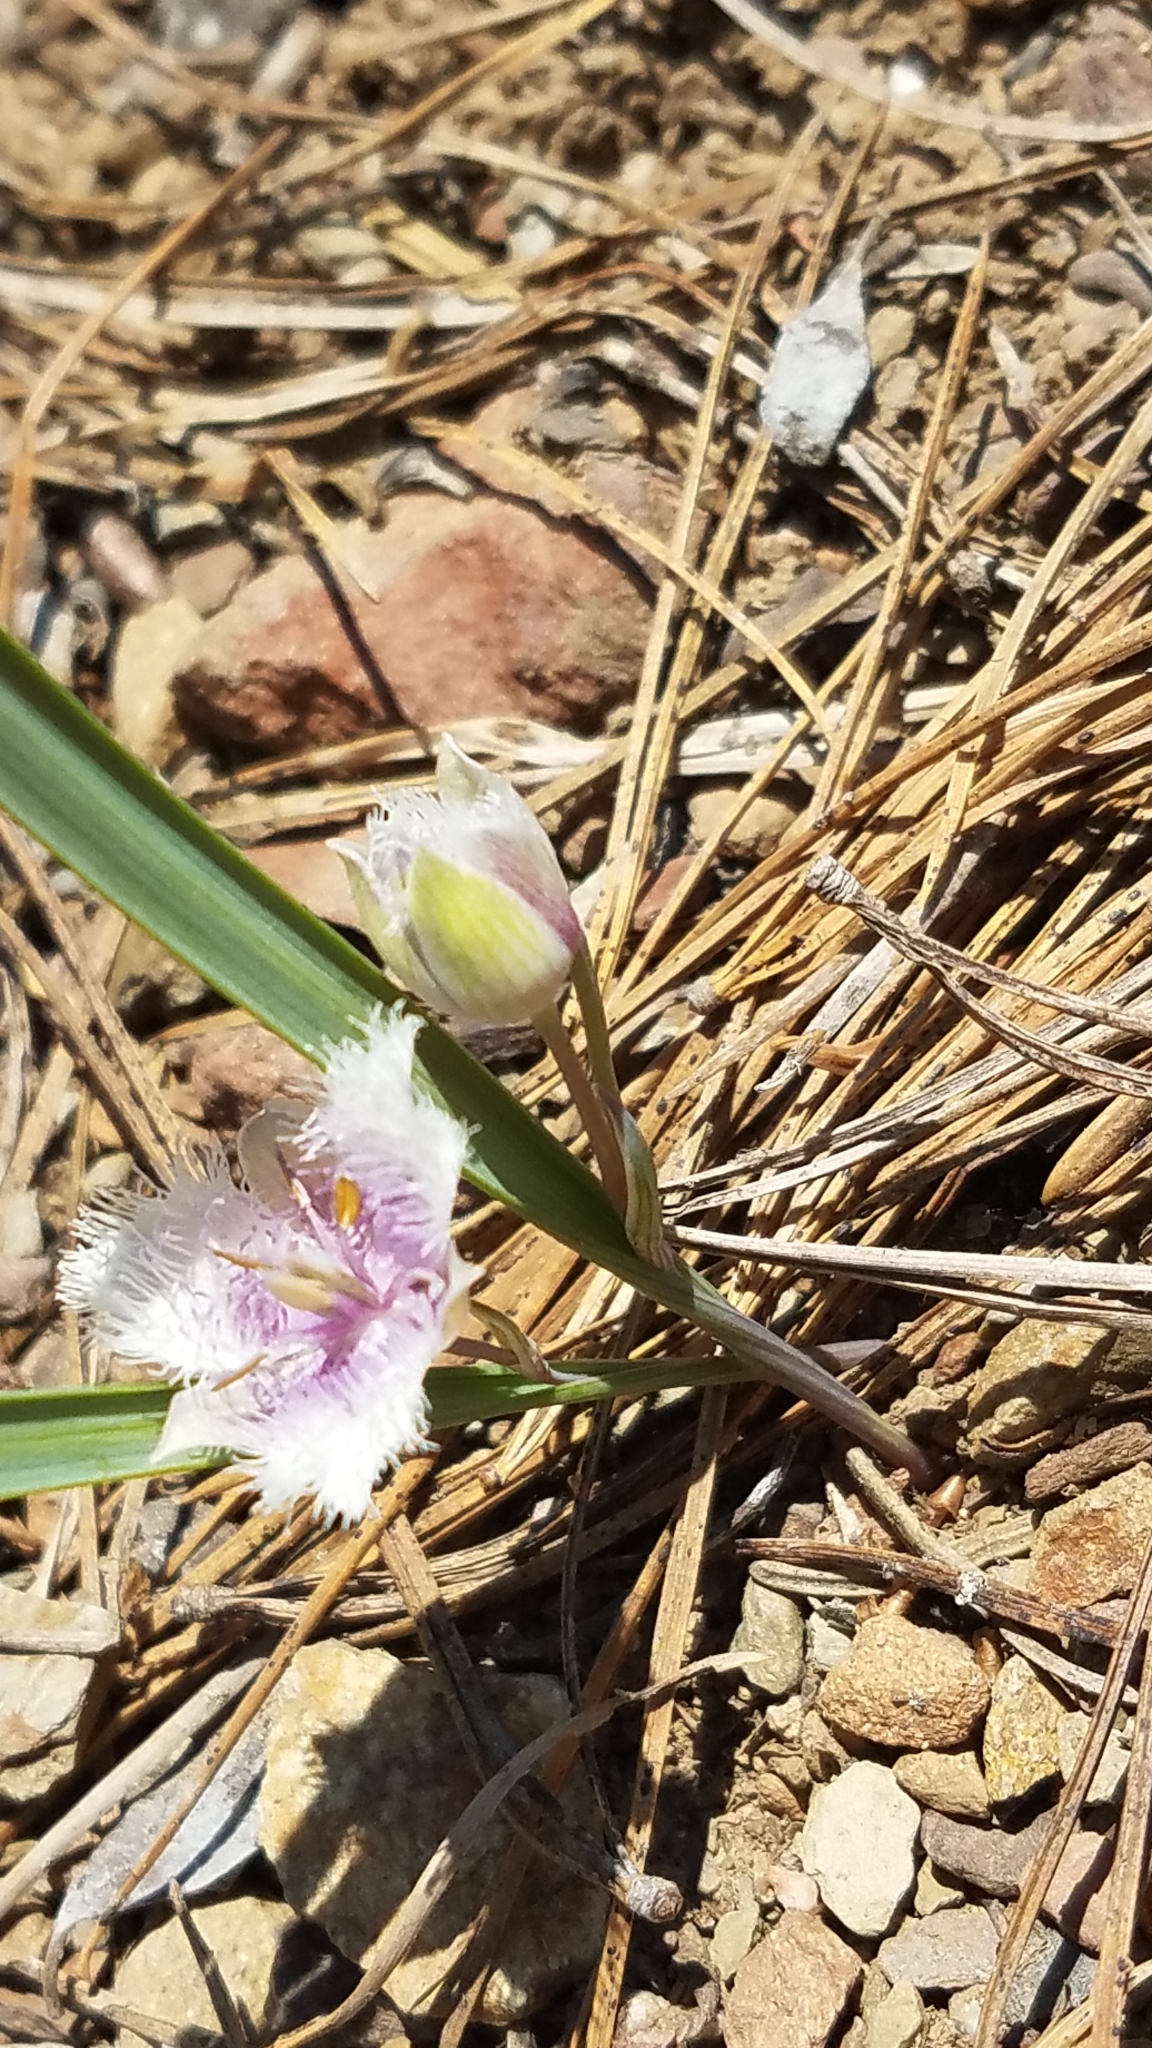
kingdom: Plantae
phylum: Tracheophyta
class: Liliopsida
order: Liliales
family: Liliaceae
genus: Calochortus
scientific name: Calochortus coeruleus
